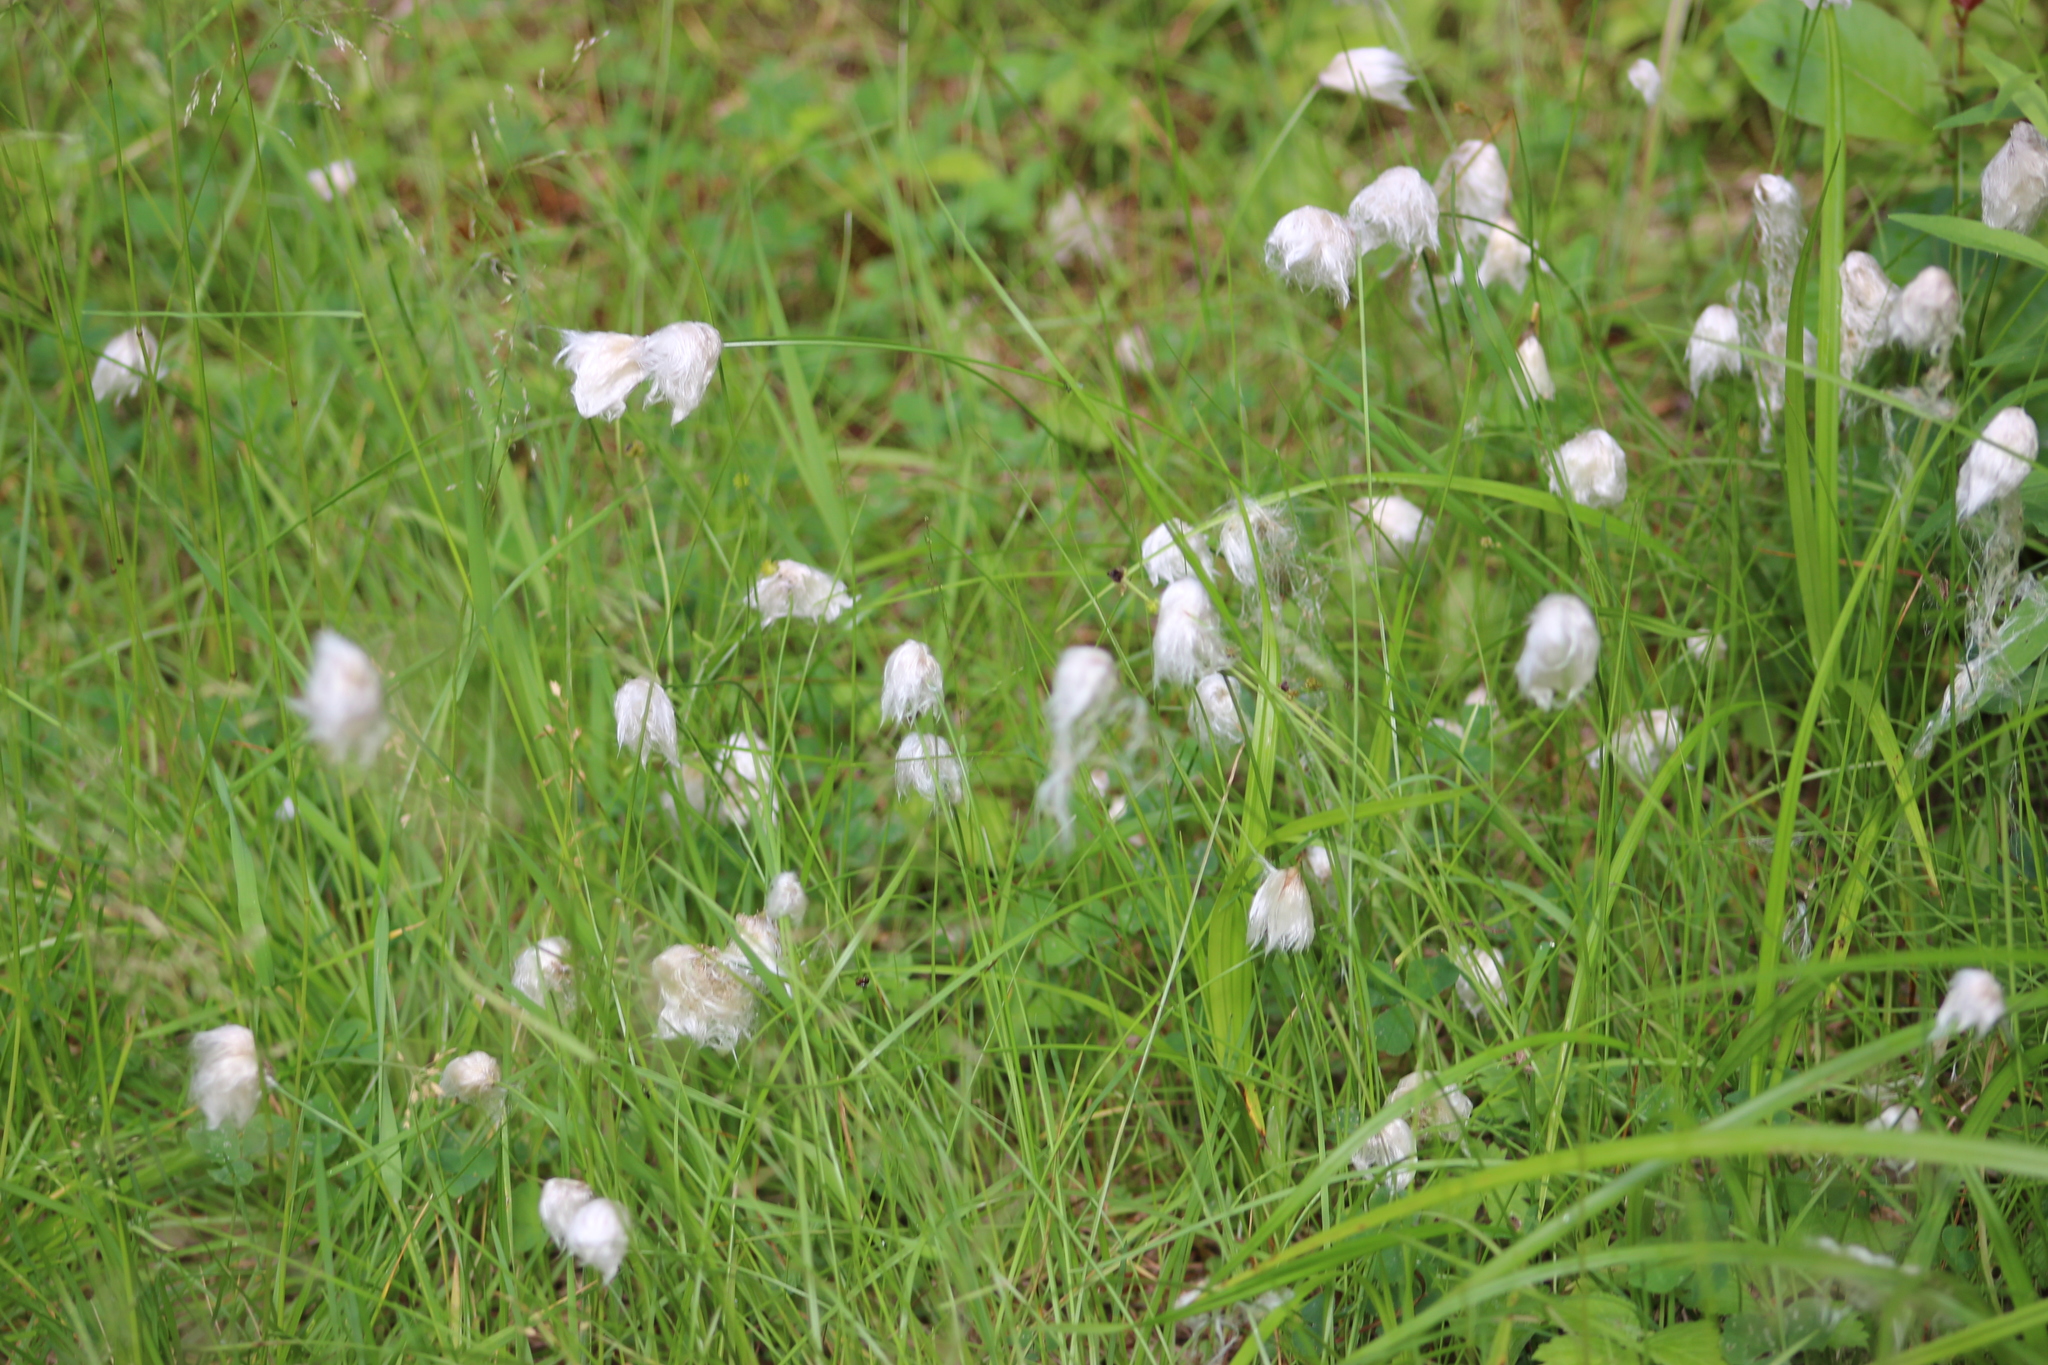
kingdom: Plantae
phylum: Tracheophyta
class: Liliopsida
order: Poales
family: Cyperaceae
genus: Eriophorum
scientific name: Eriophorum vaginatum
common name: Hare's-tail cottongrass
